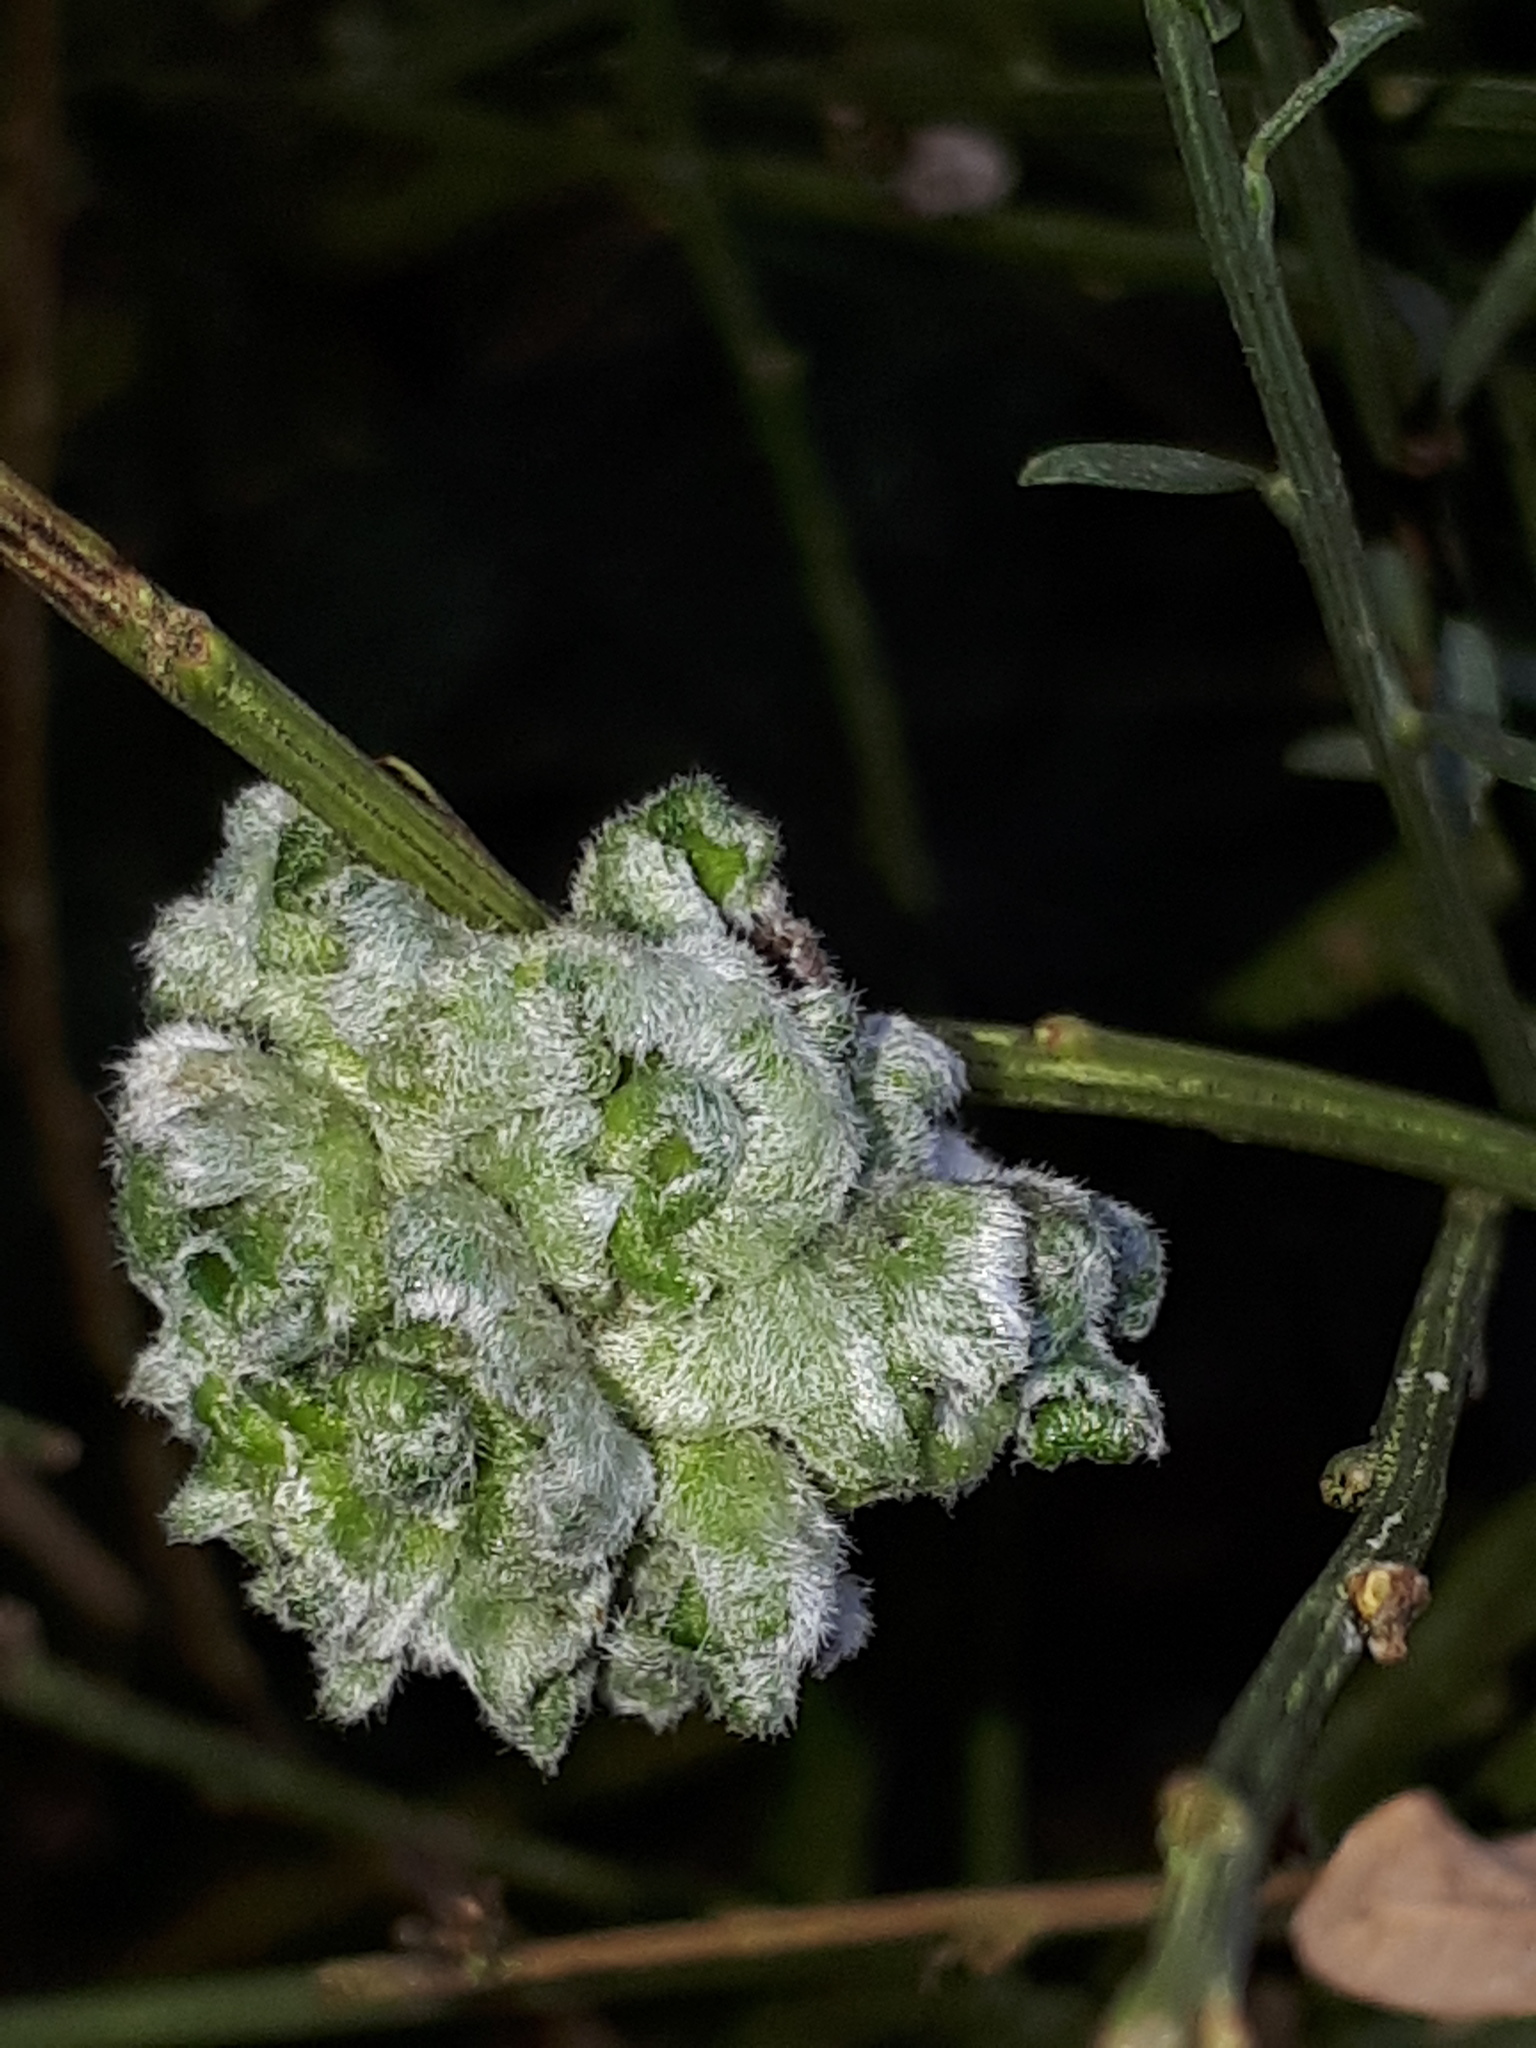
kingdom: Animalia
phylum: Arthropoda
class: Arachnida
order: Trombidiformes
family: Eriophyidae
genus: Aceria
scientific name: Aceria genistae
